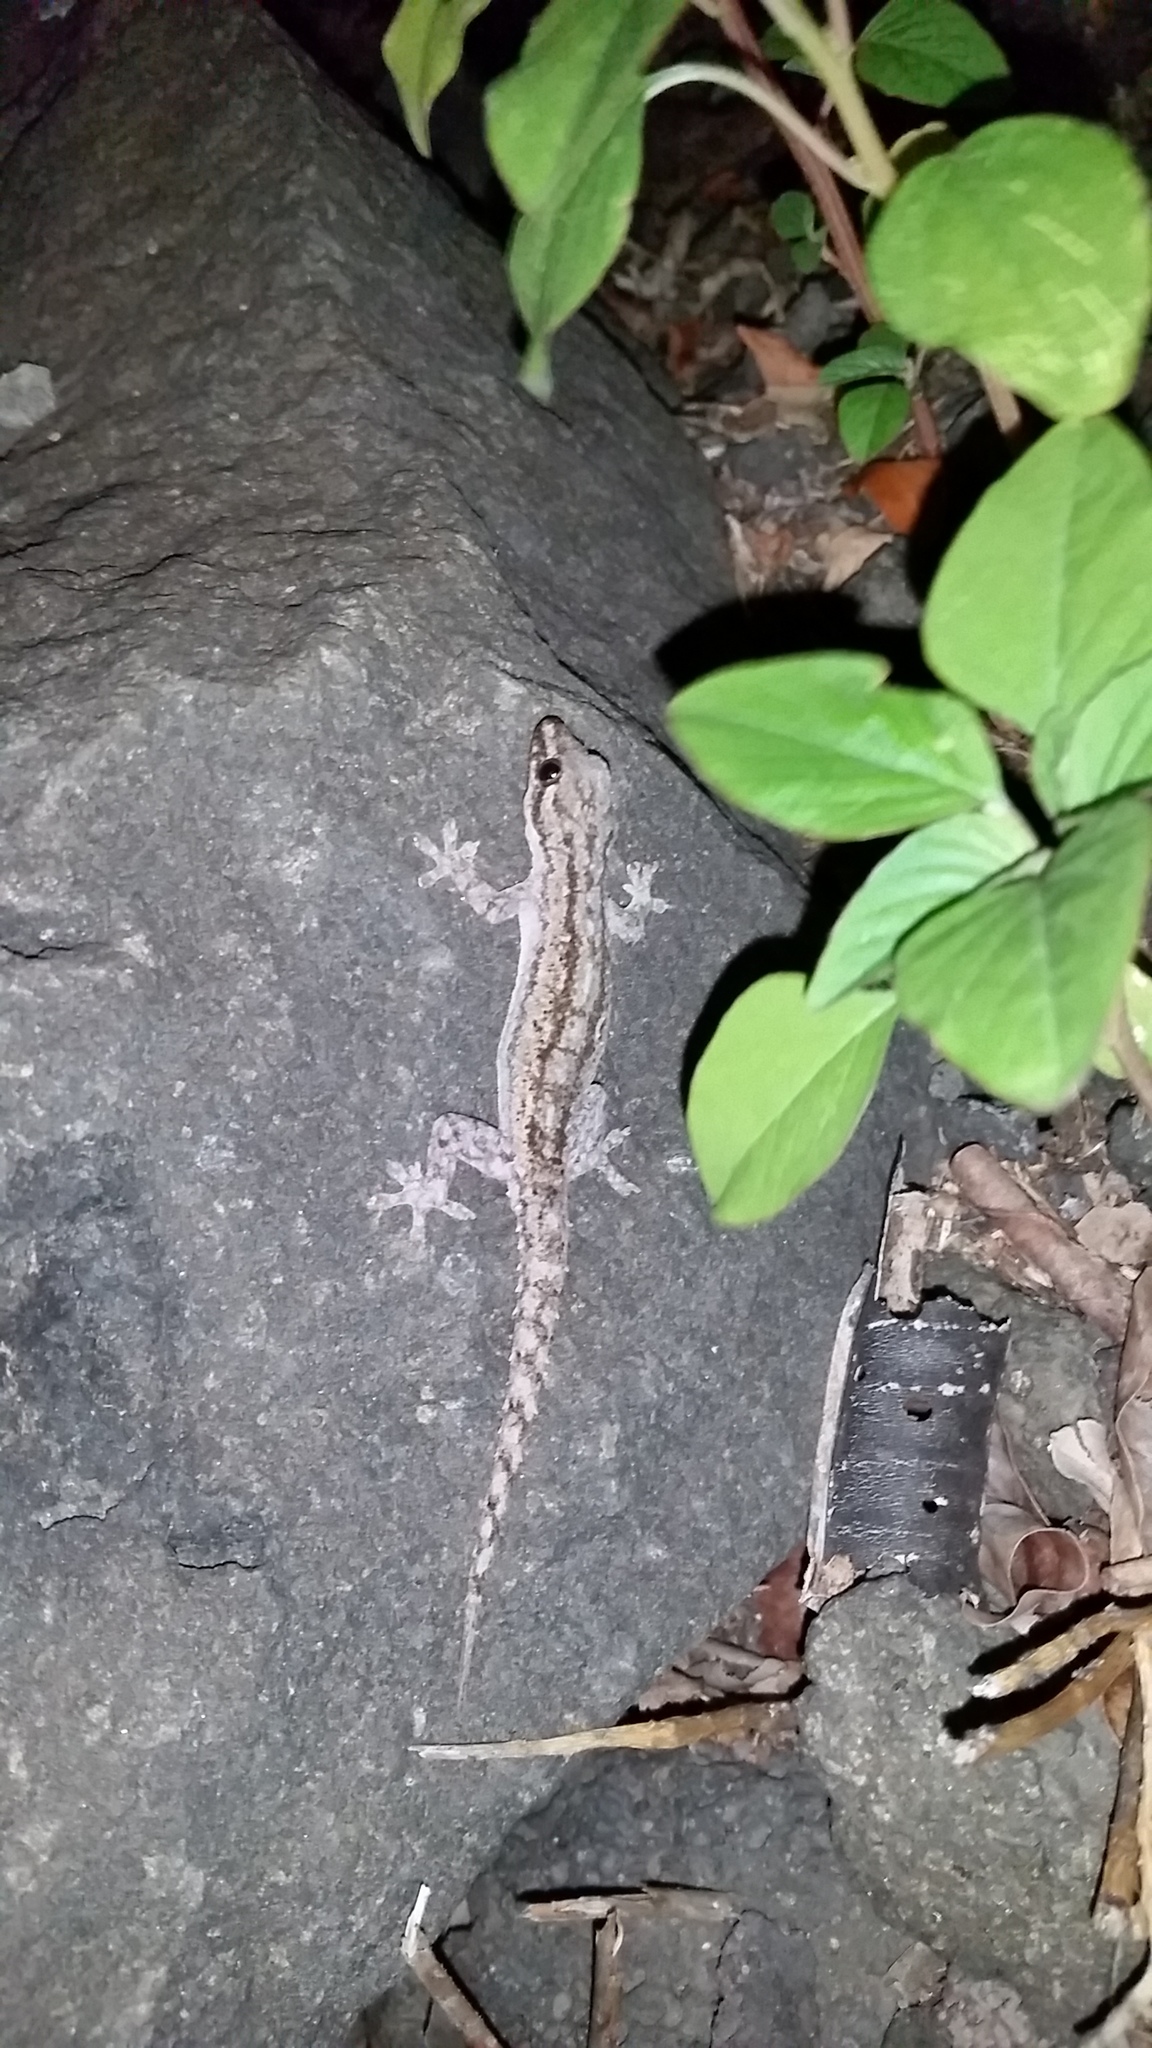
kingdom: Animalia
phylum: Chordata
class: Squamata
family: Gekkonidae
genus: Hemidactylus
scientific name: Hemidactylus frenatus
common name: Common house gecko
